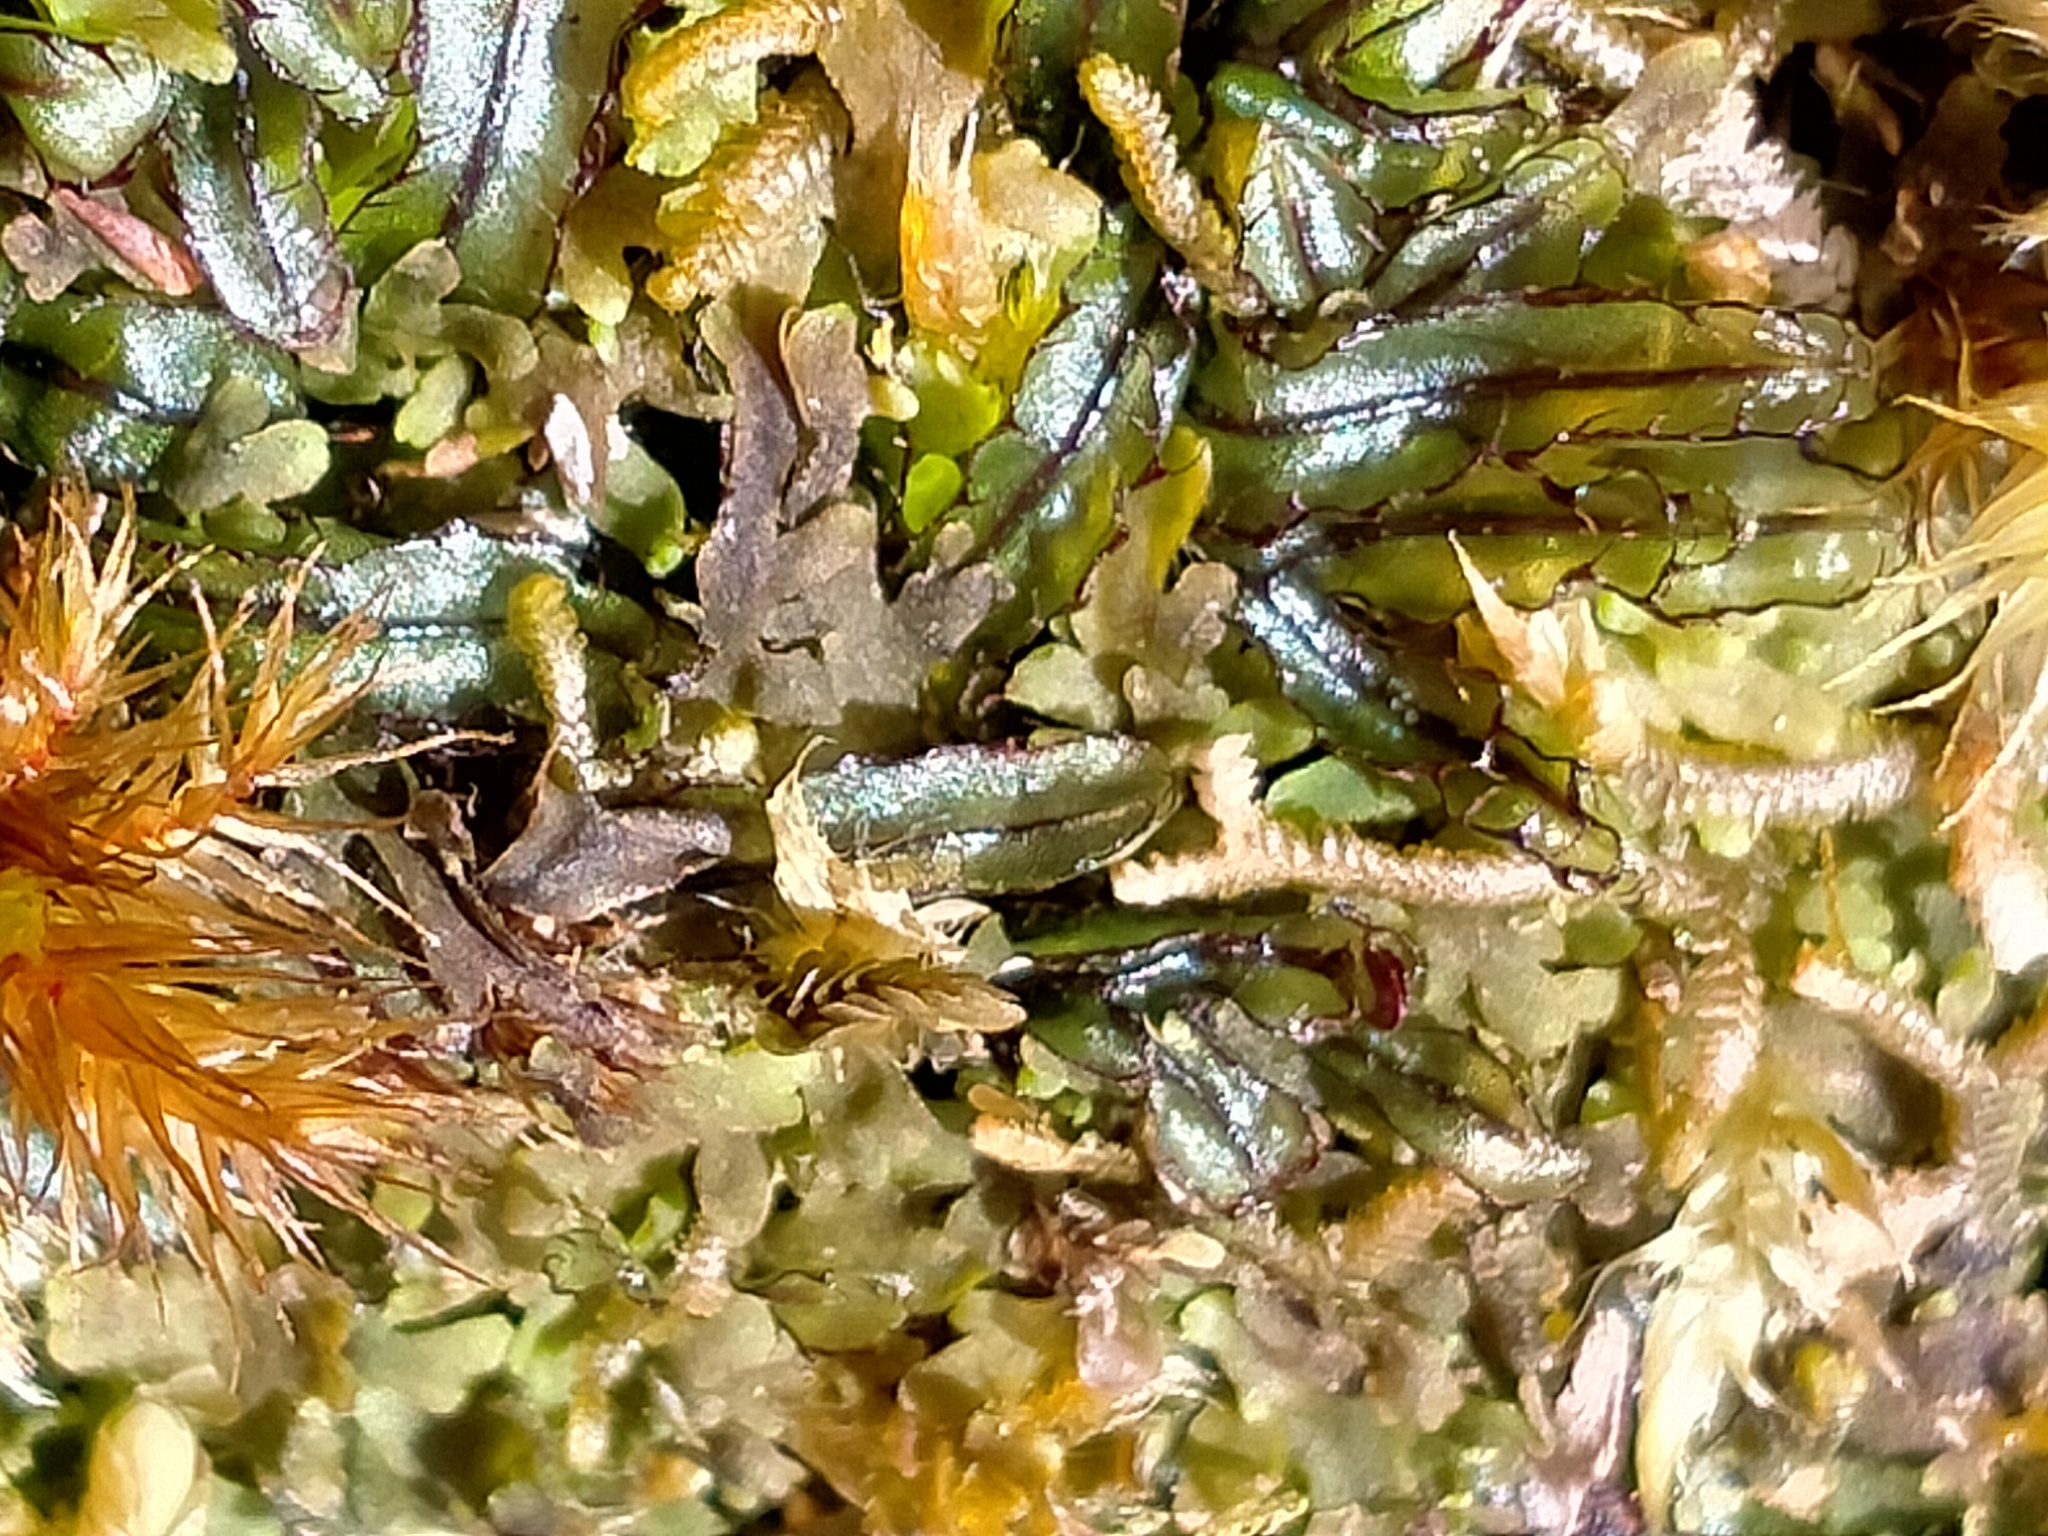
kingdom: Plantae
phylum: Tracheophyta
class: Polypodiopsida
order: Hymenophyllales
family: Hymenophyllaceae
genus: Hymenophyllum
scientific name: Hymenophyllum armstrongii
